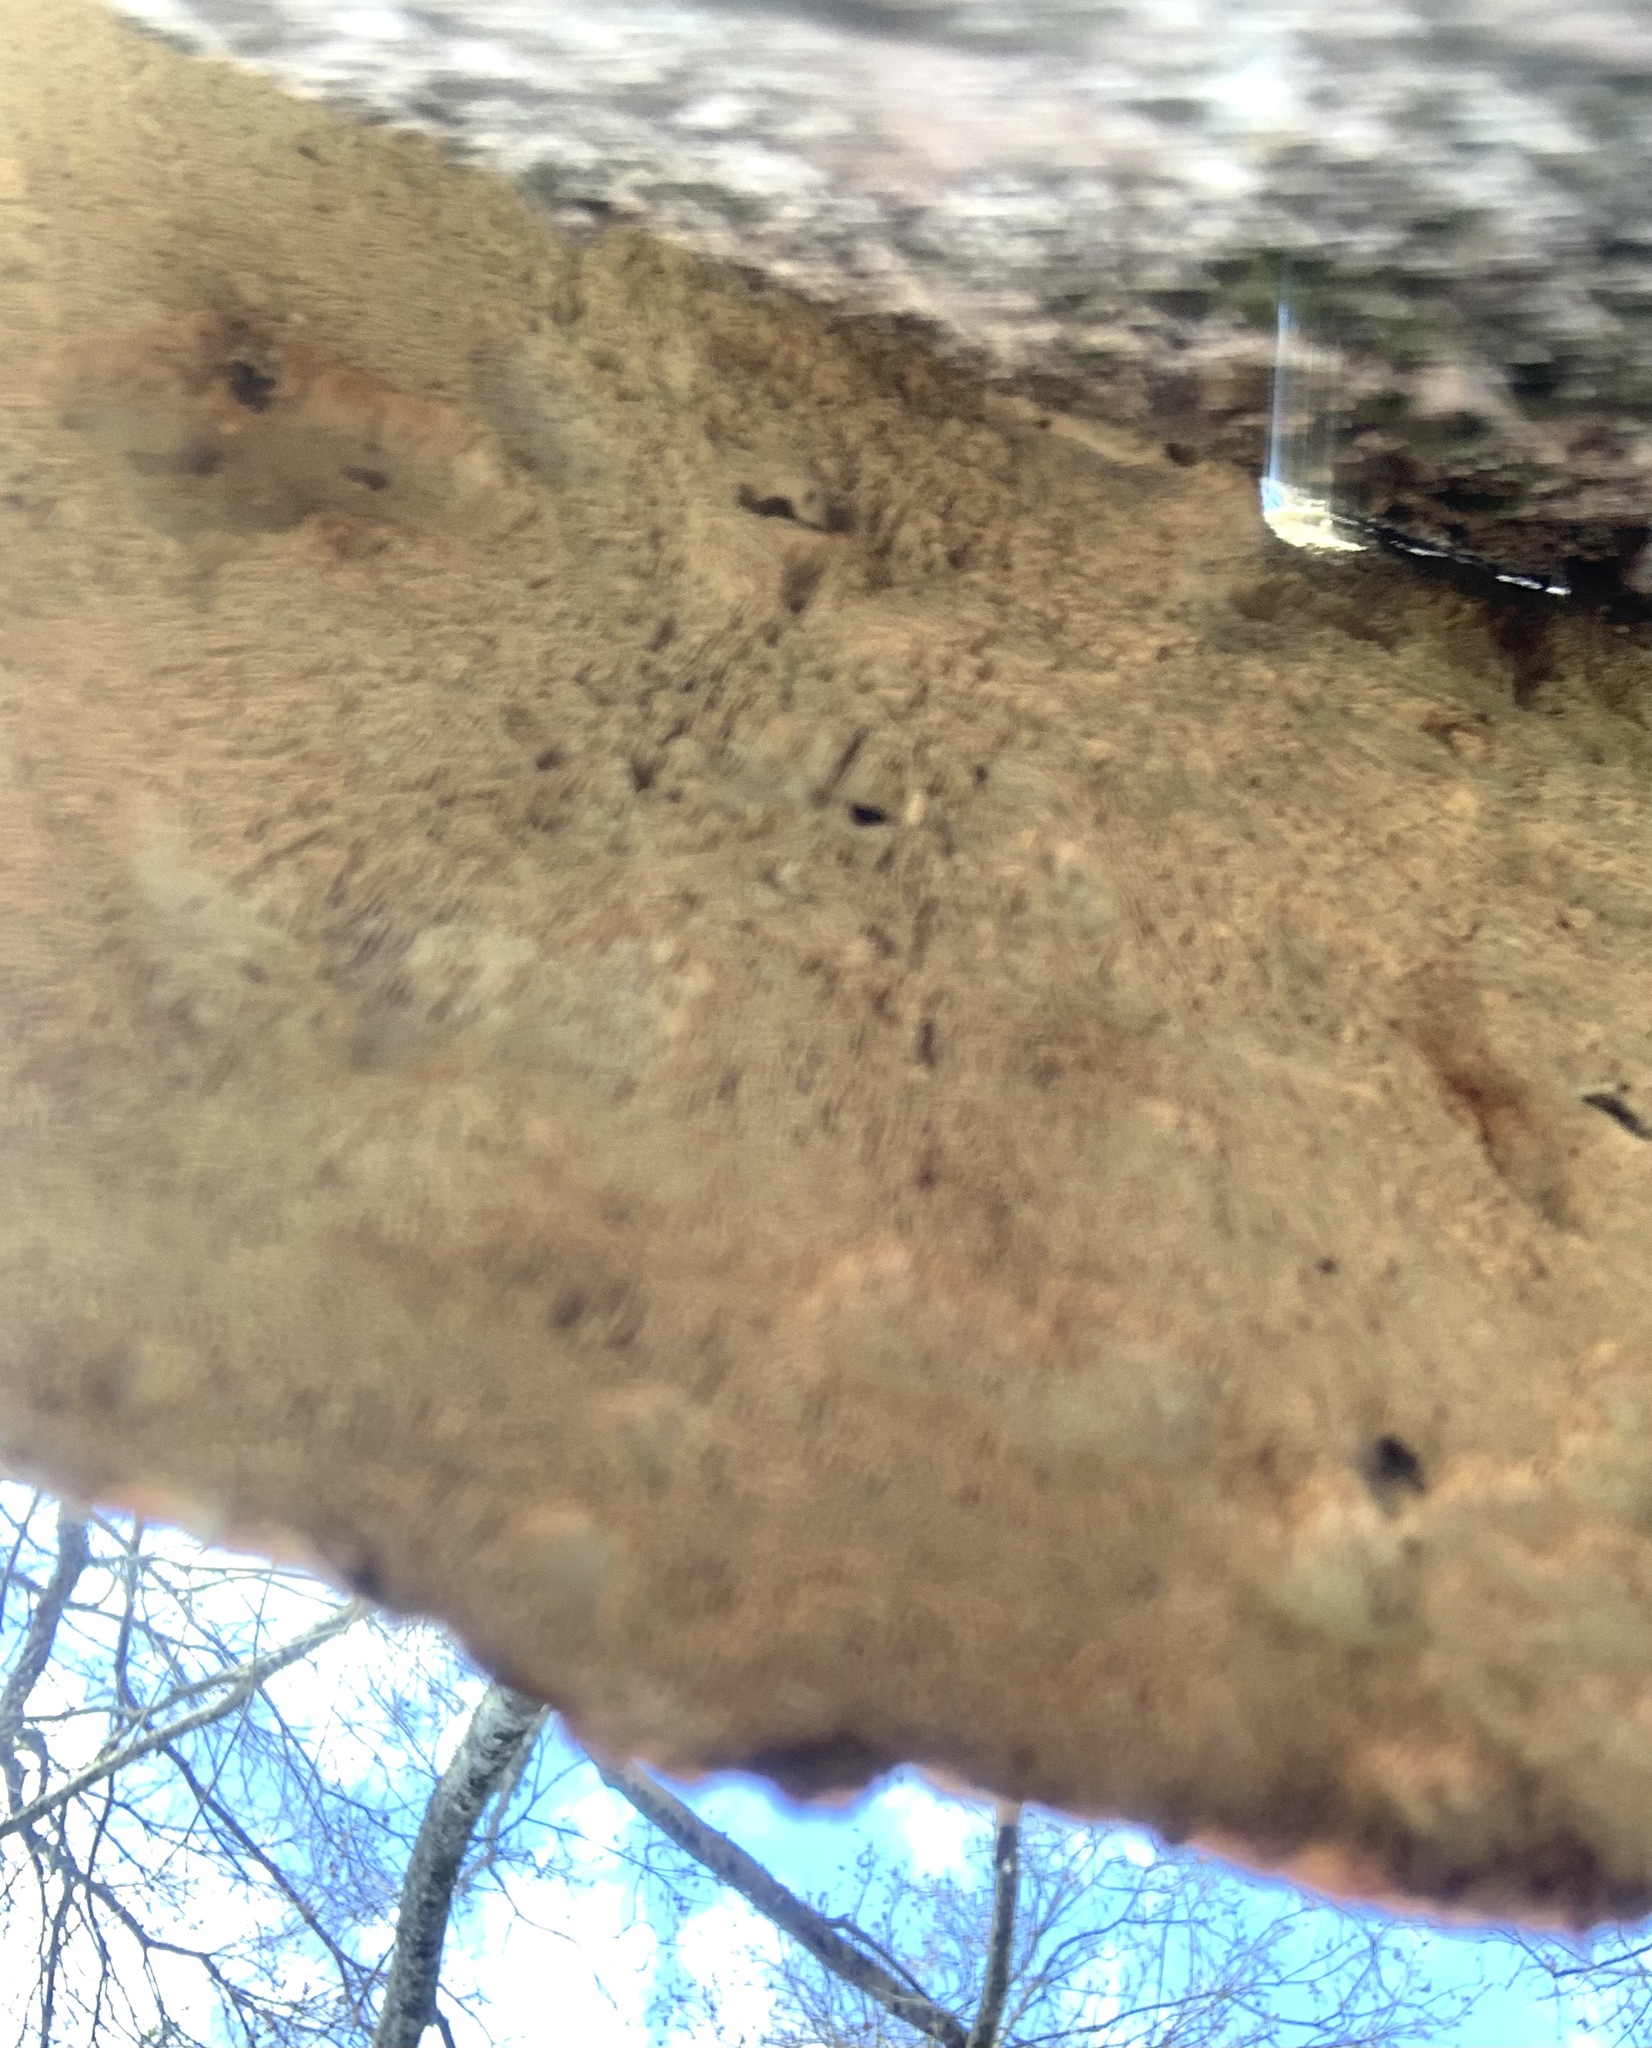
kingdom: Fungi
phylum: Basidiomycota
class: Agaricomycetes
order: Polyporales
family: Polyporaceae
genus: Trametes
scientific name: Trametes
